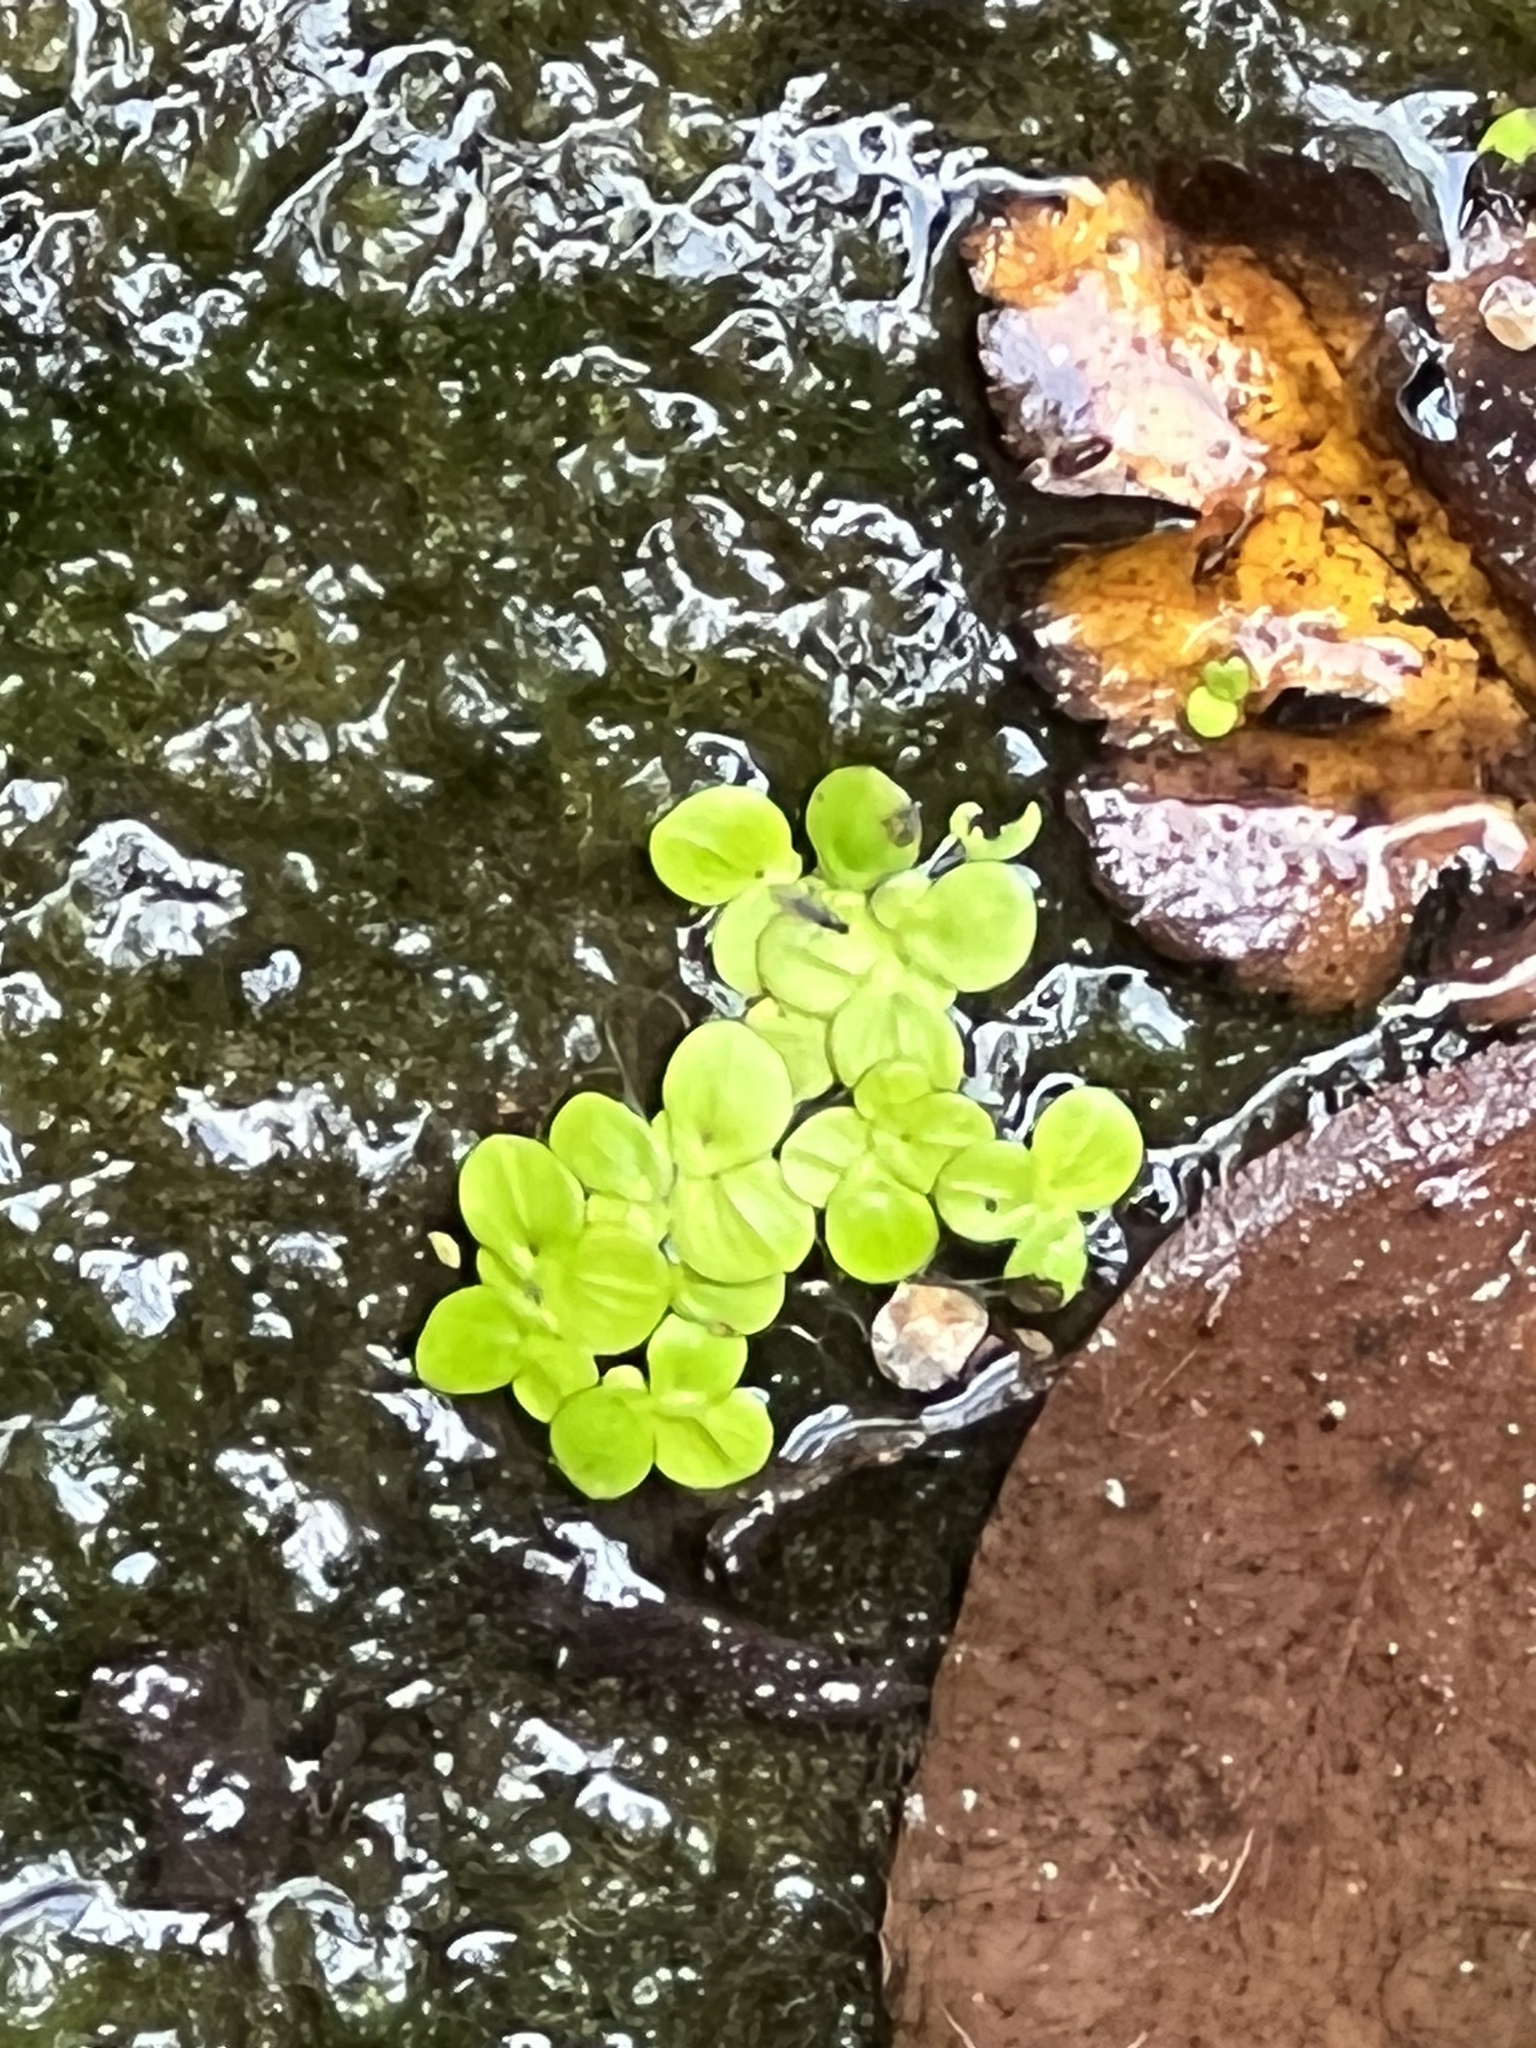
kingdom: Plantae
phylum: Tracheophyta
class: Liliopsida
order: Alismatales
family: Araceae
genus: Spirodela
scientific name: Spirodela polyrhiza
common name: Great duckweed
